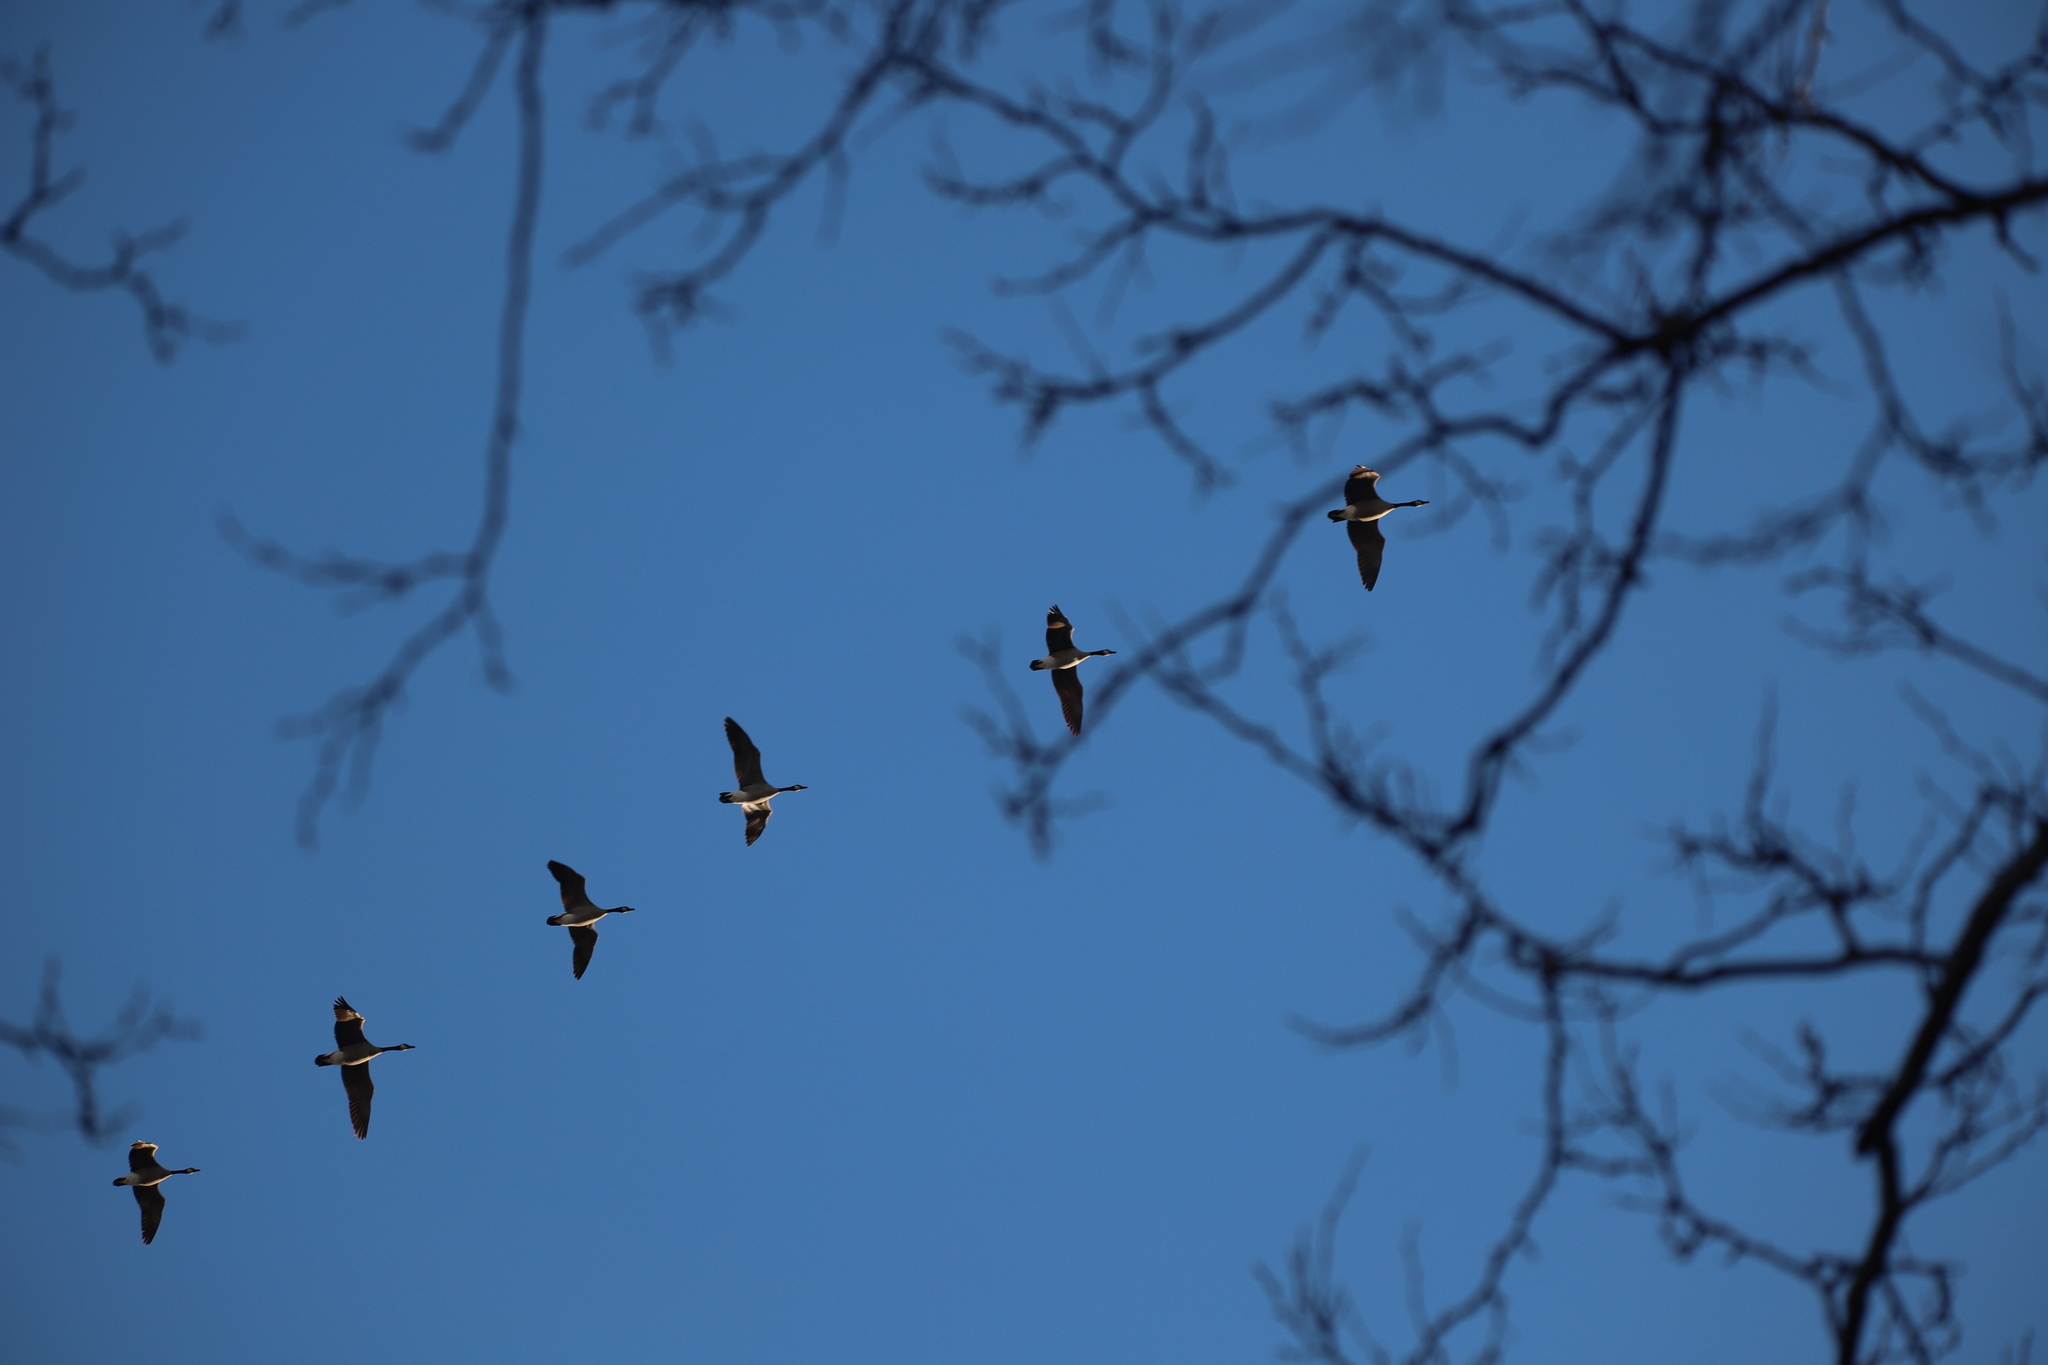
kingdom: Animalia
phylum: Chordata
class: Aves
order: Anseriformes
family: Anatidae
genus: Branta
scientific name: Branta canadensis
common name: Canada goose
